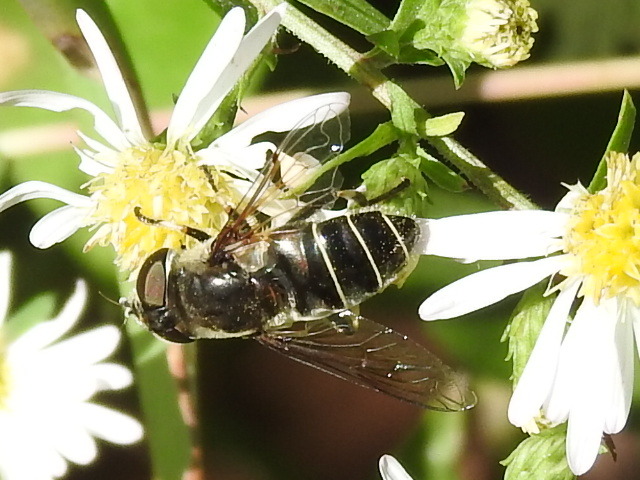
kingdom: Animalia
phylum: Arthropoda
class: Insecta
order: Diptera
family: Syrphidae
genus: Eristalis
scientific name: Eristalis dimidiata
